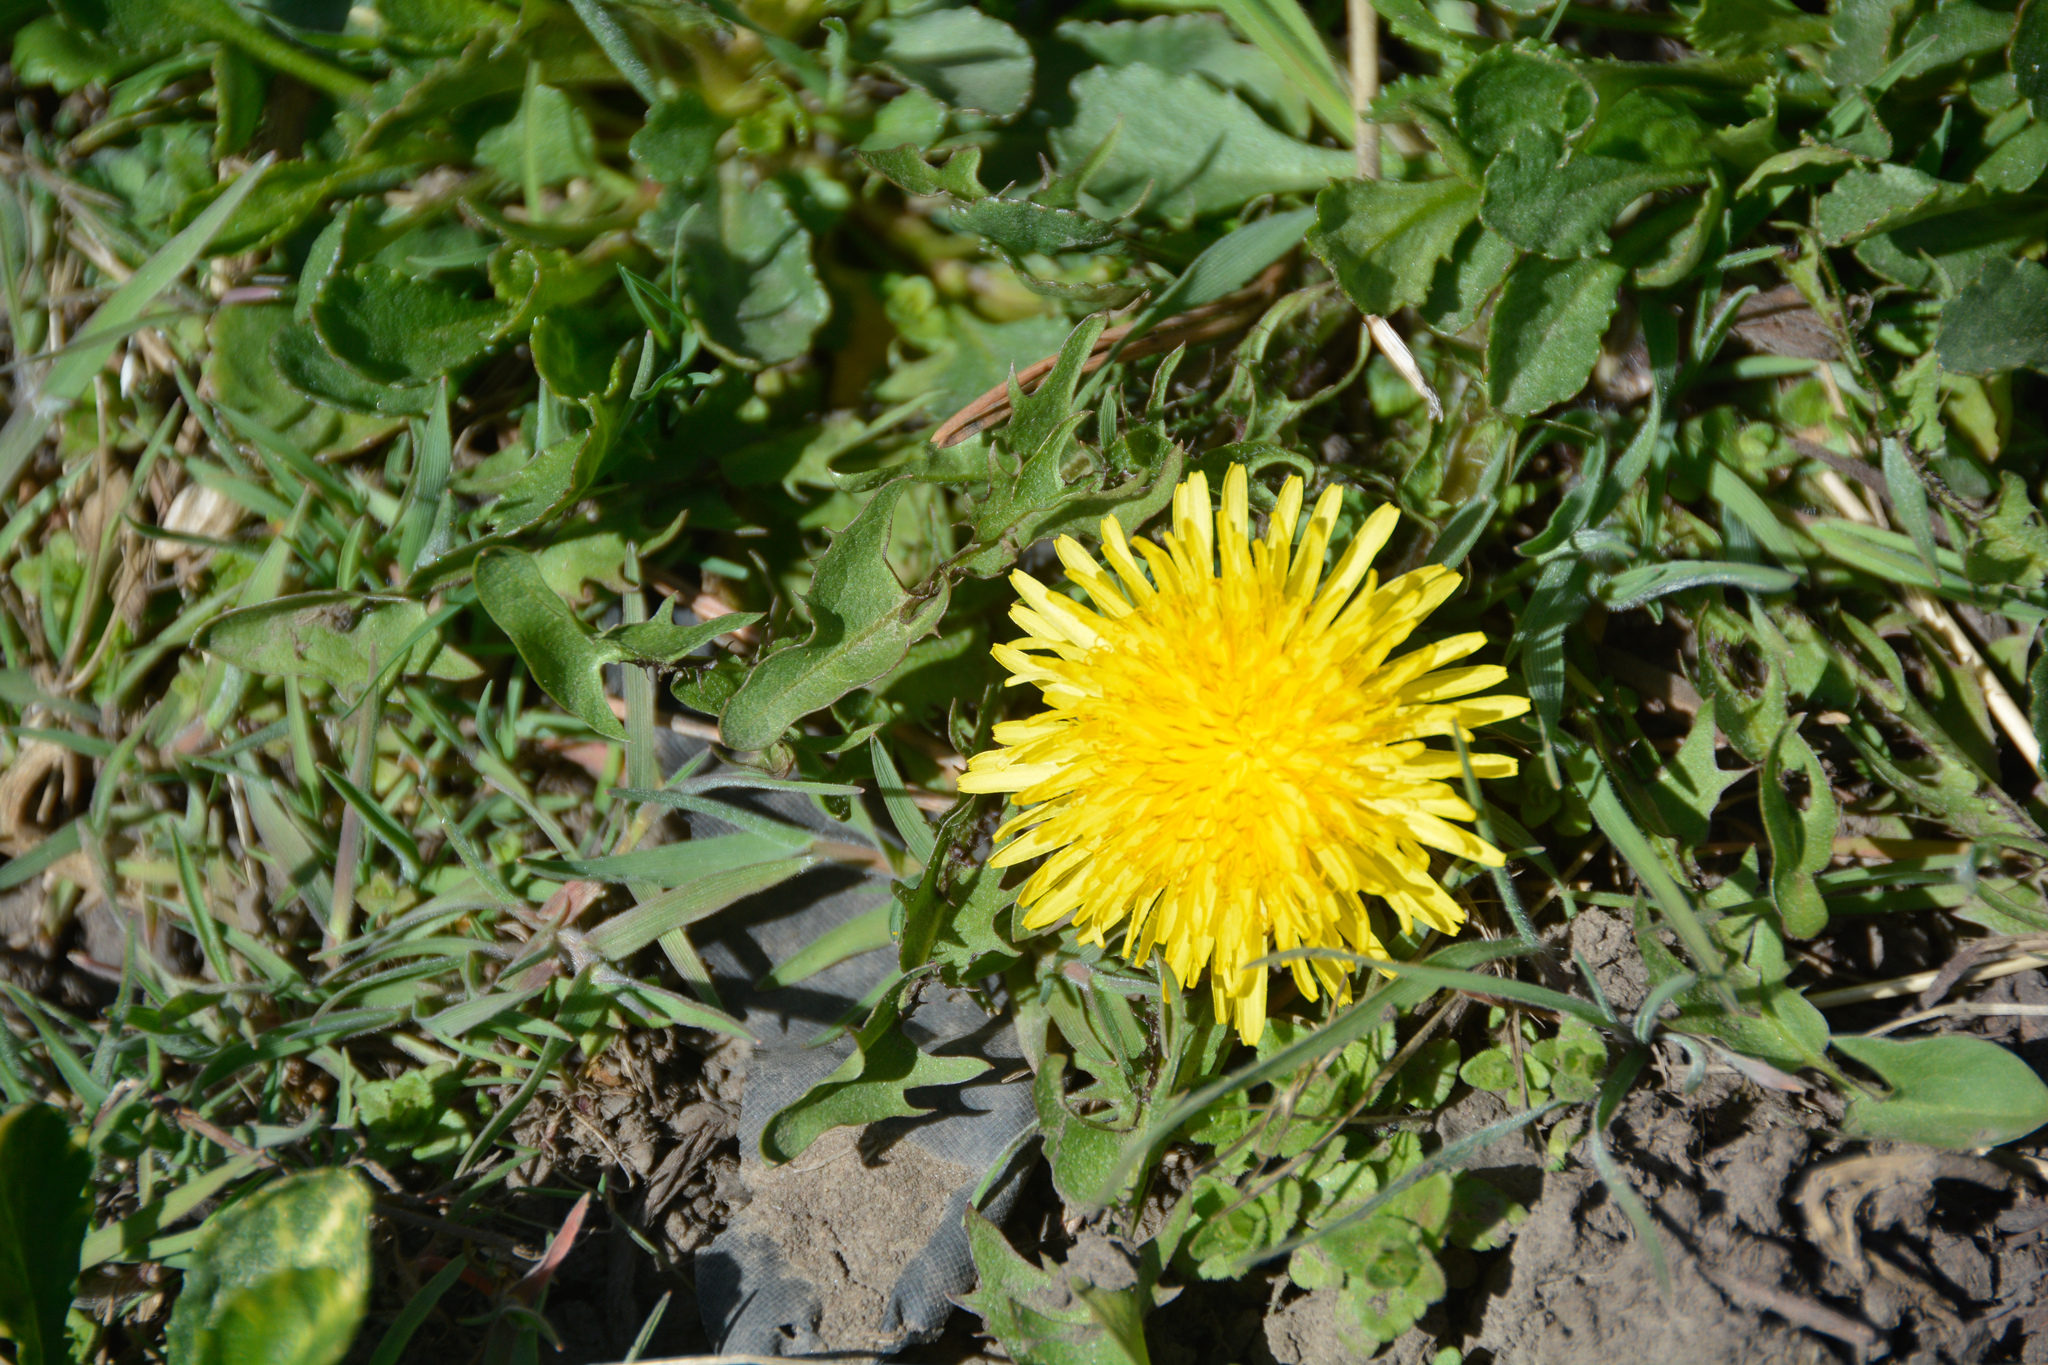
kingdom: Plantae
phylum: Tracheophyta
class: Magnoliopsida
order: Asterales
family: Asteraceae
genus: Taraxacum
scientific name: Taraxacum officinale
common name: Common dandelion
